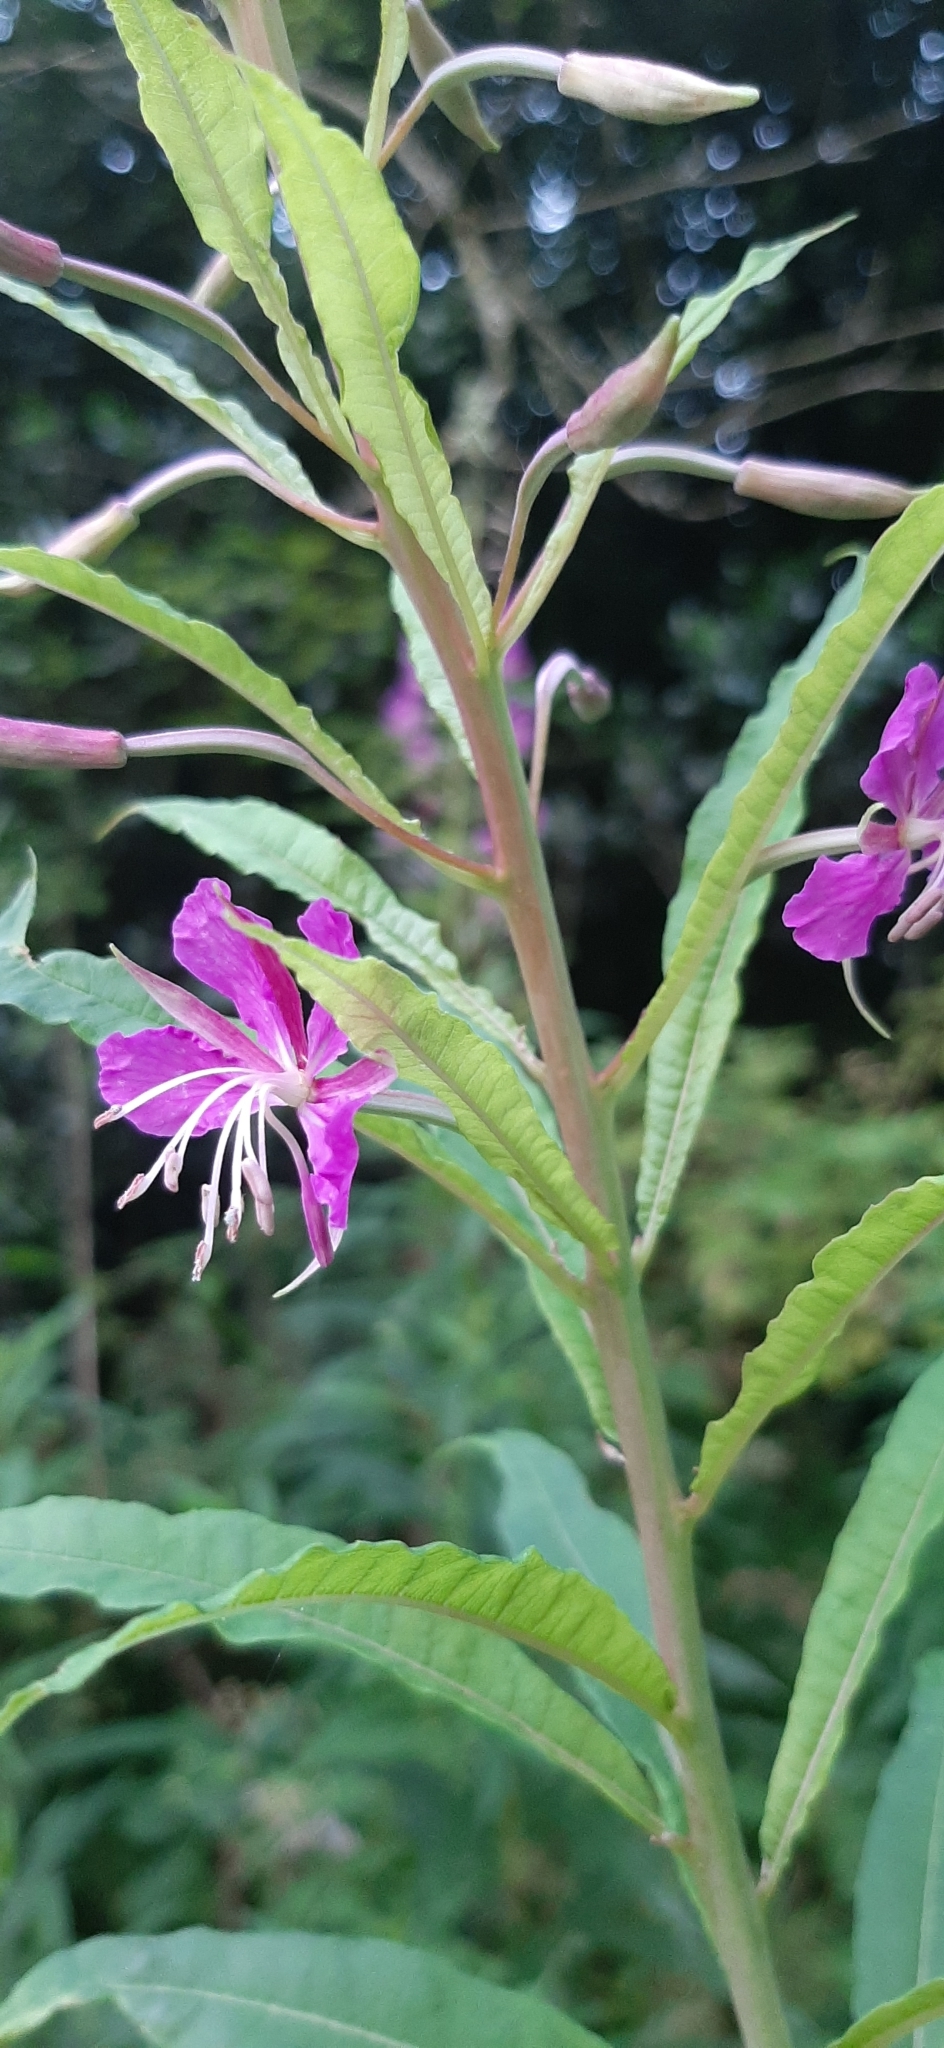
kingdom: Plantae
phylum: Tracheophyta
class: Magnoliopsida
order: Myrtales
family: Onagraceae
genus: Chamaenerion
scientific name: Chamaenerion angustifolium
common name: Fireweed
